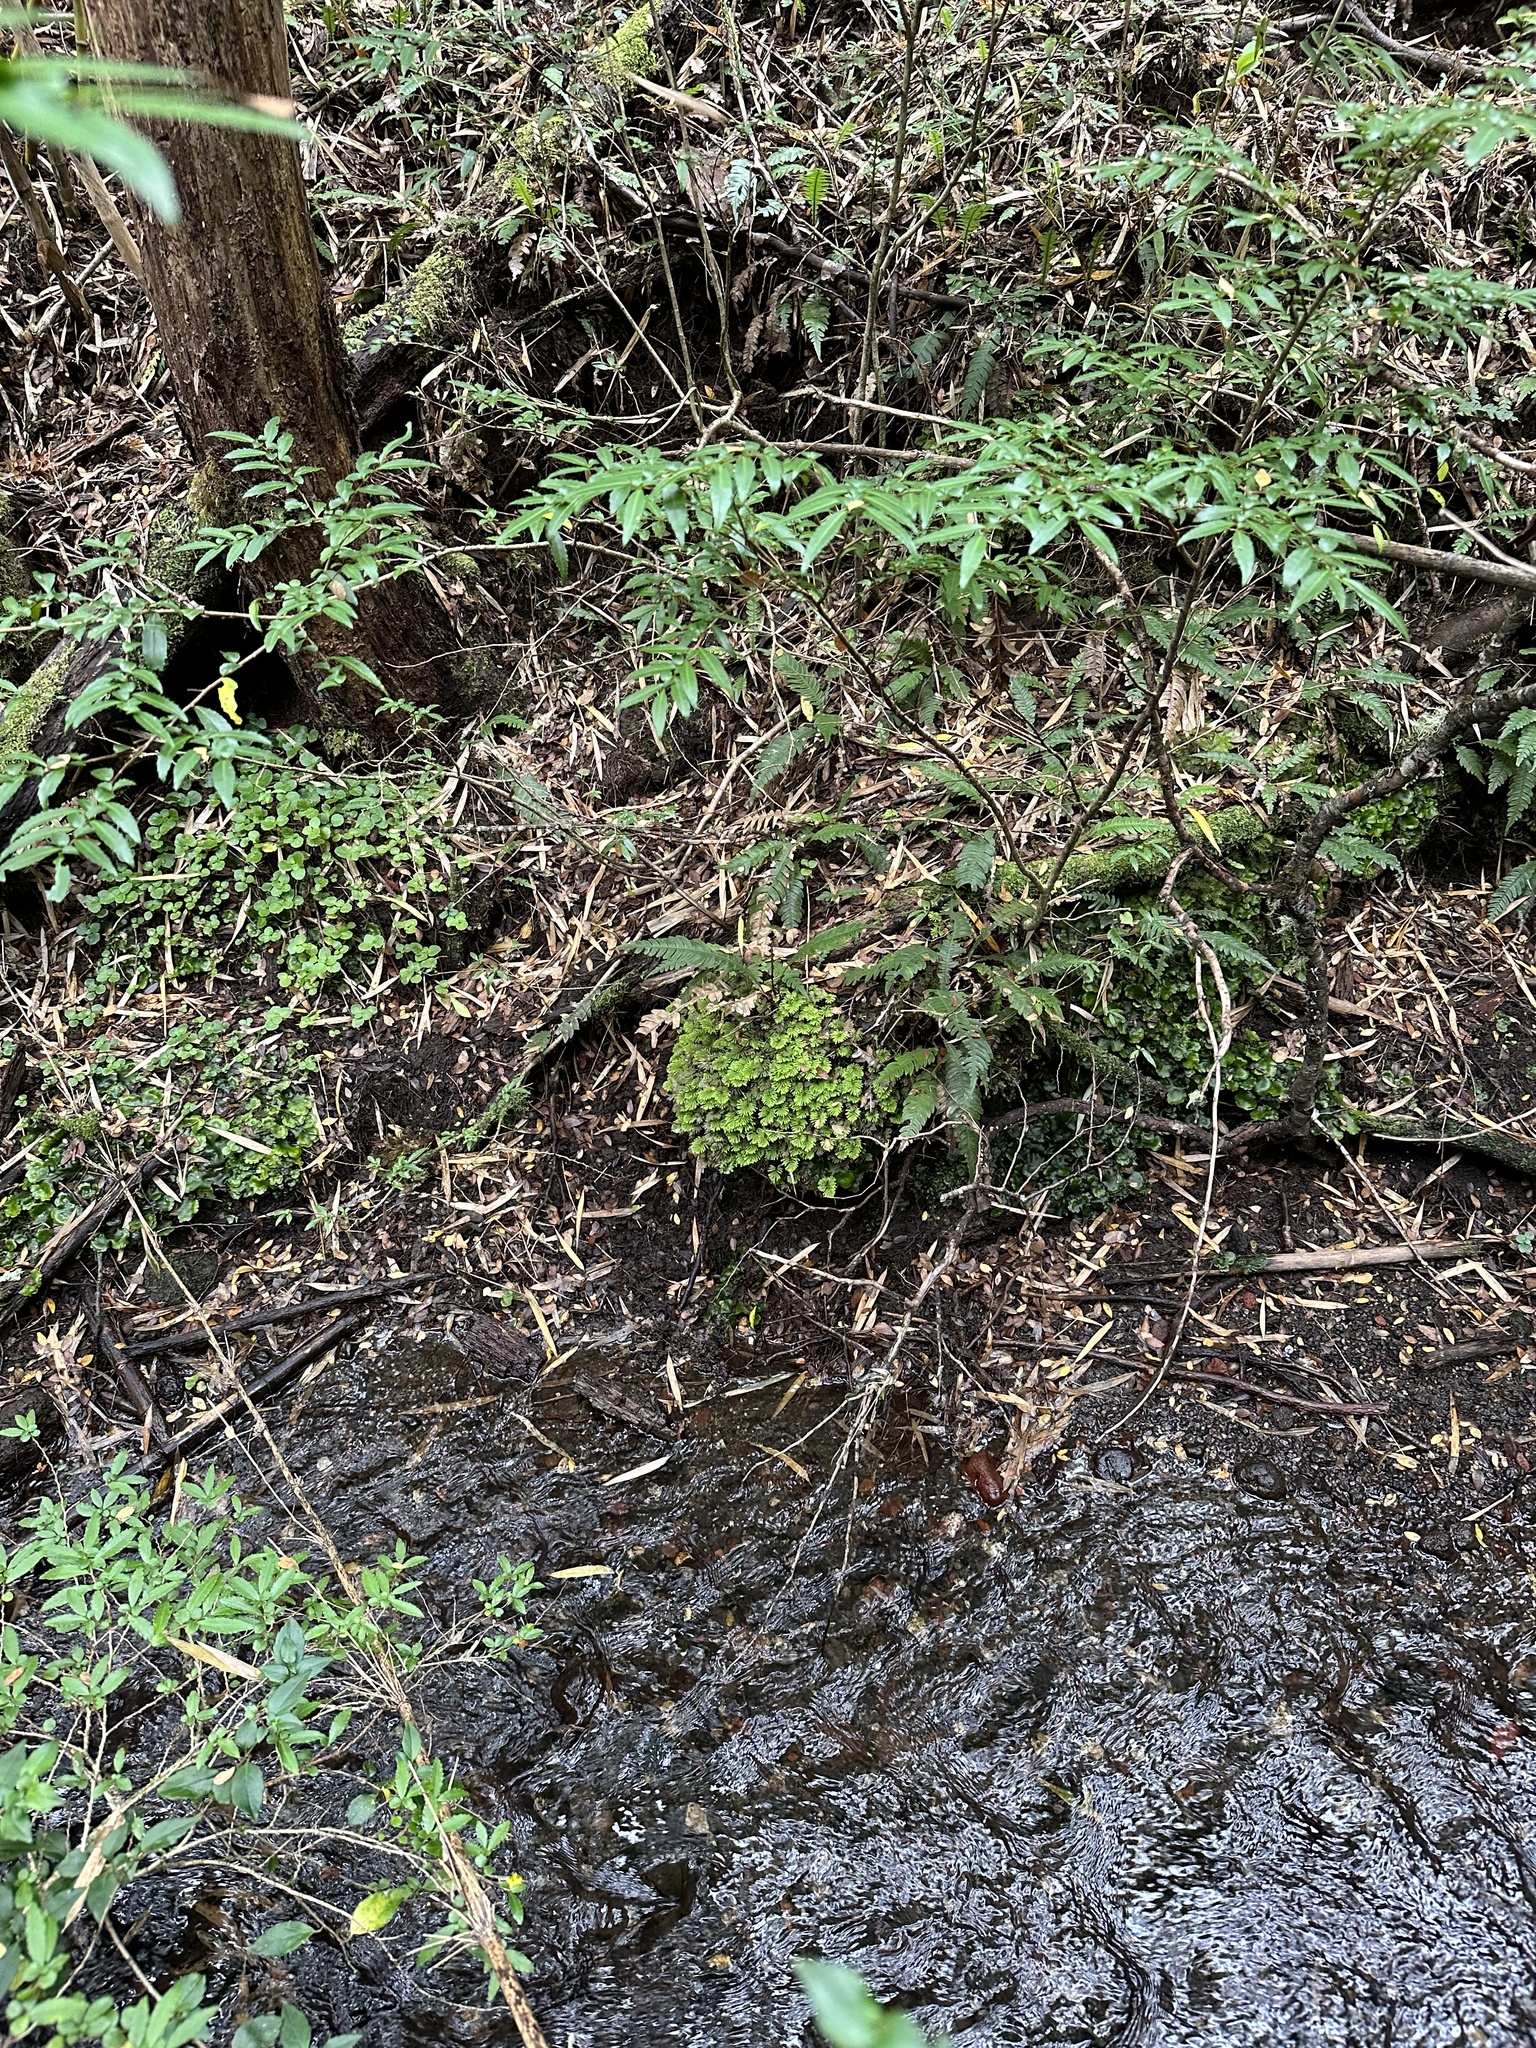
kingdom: Plantae
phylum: Bryophyta
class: Bryopsida
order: Hypopterygiales
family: Hypopterygiaceae
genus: Arbusculohypopterygium
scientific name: Arbusculohypopterygium arbuscula
